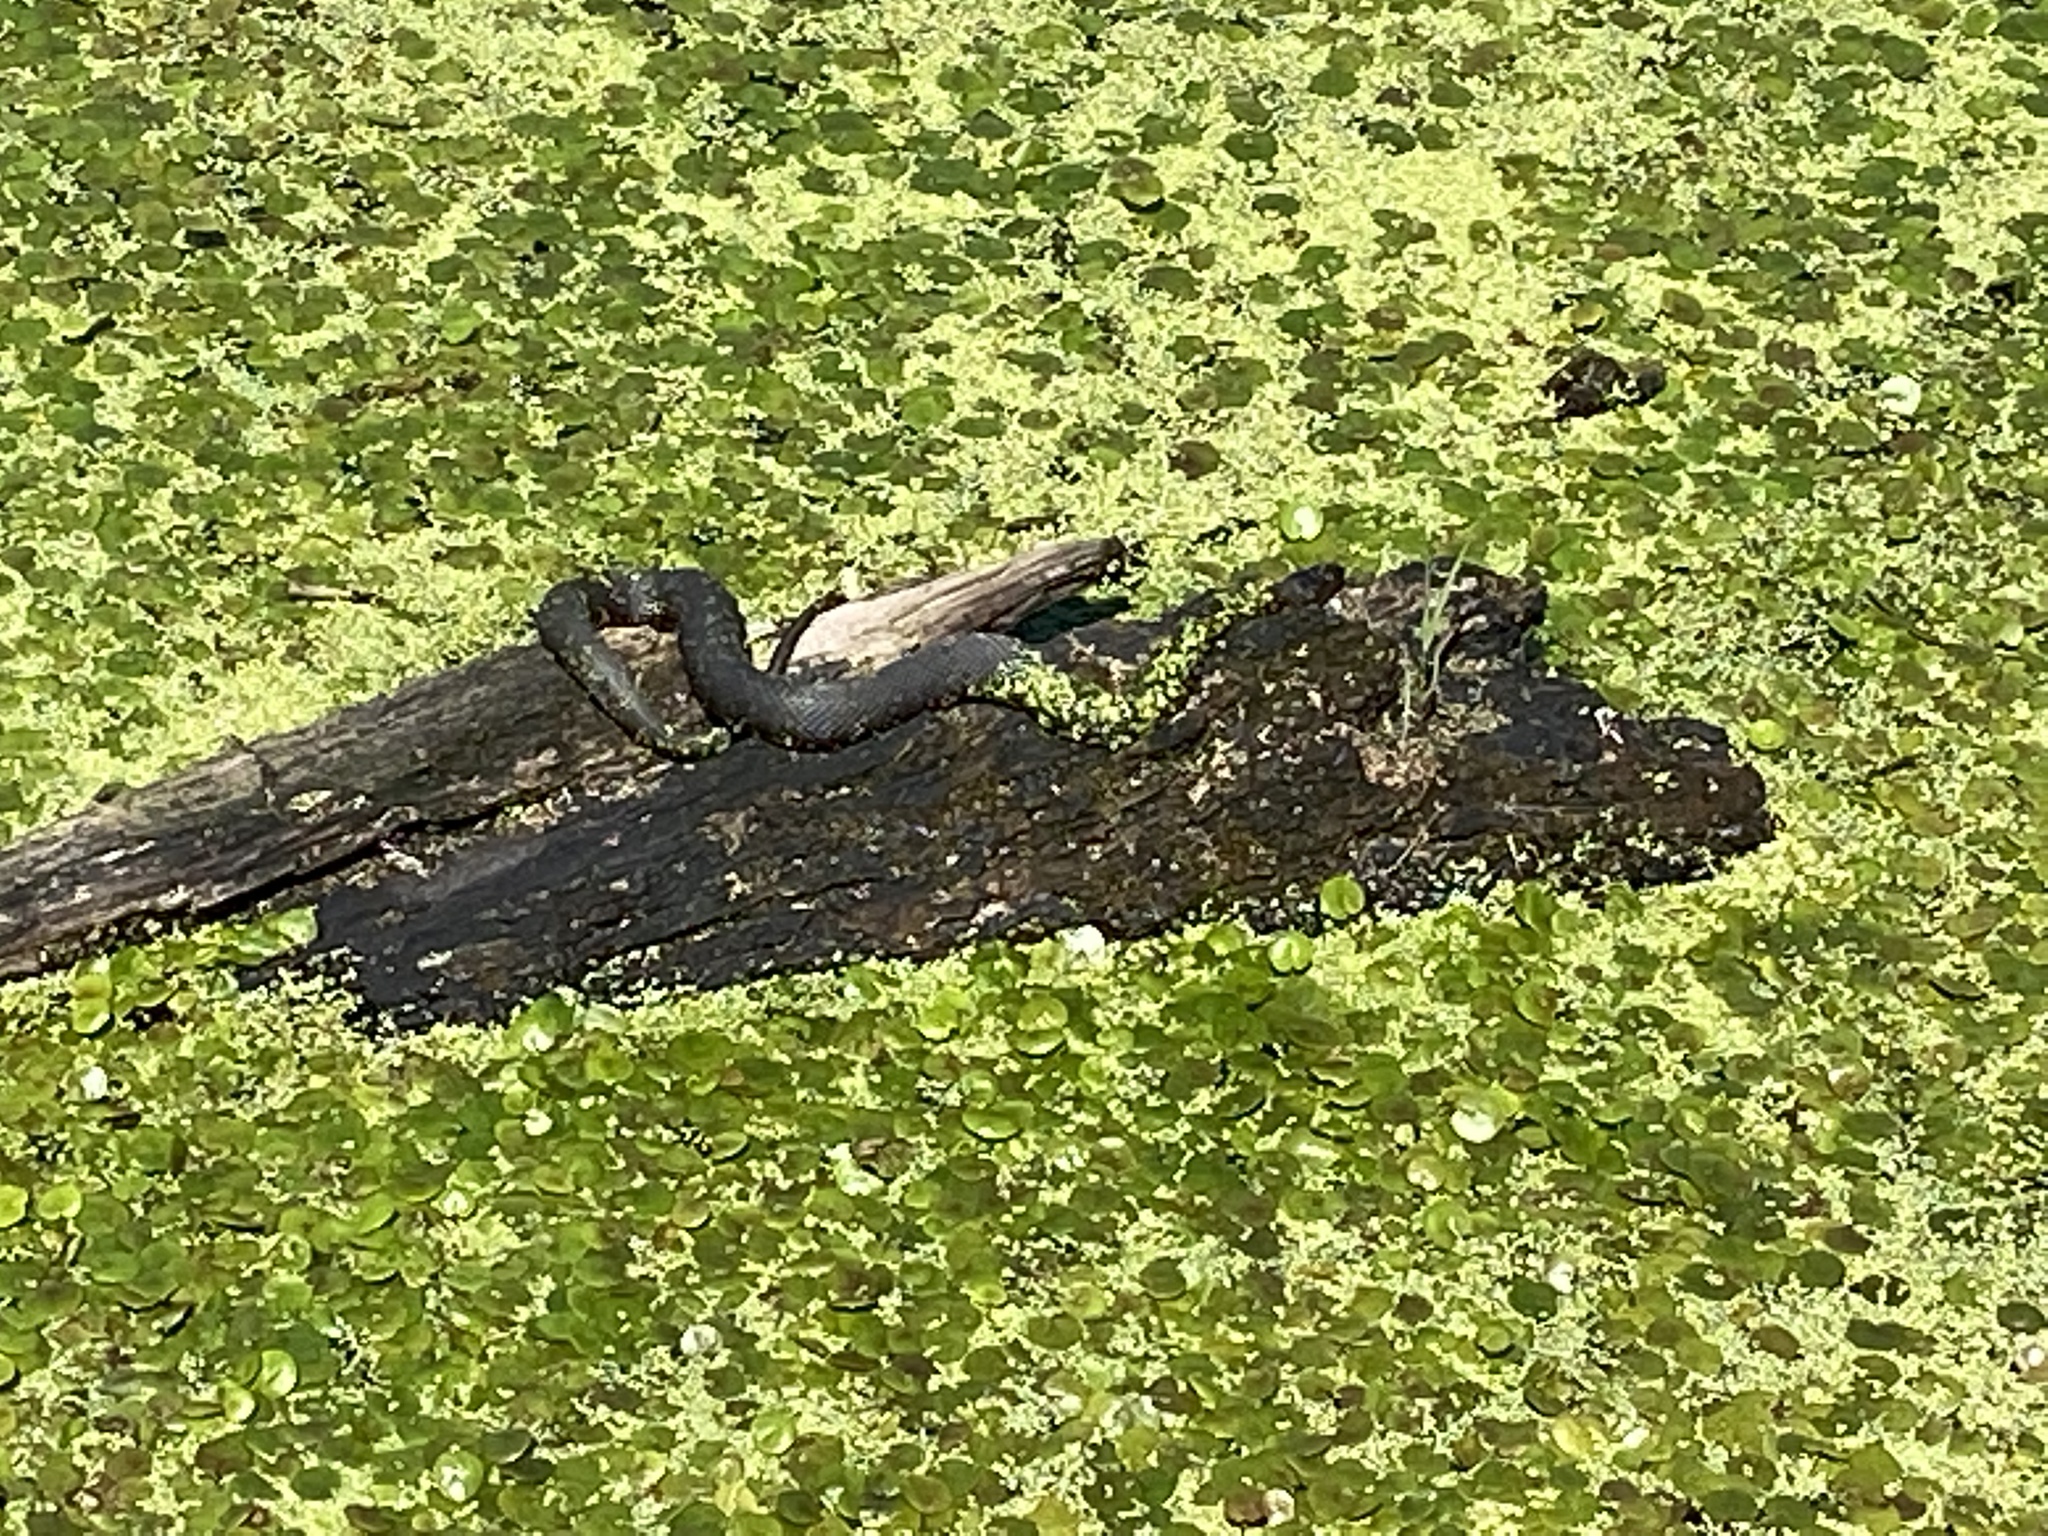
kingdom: Animalia
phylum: Chordata
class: Squamata
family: Colubridae
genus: Nerodia
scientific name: Nerodia sipedon
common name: Northern water snake
